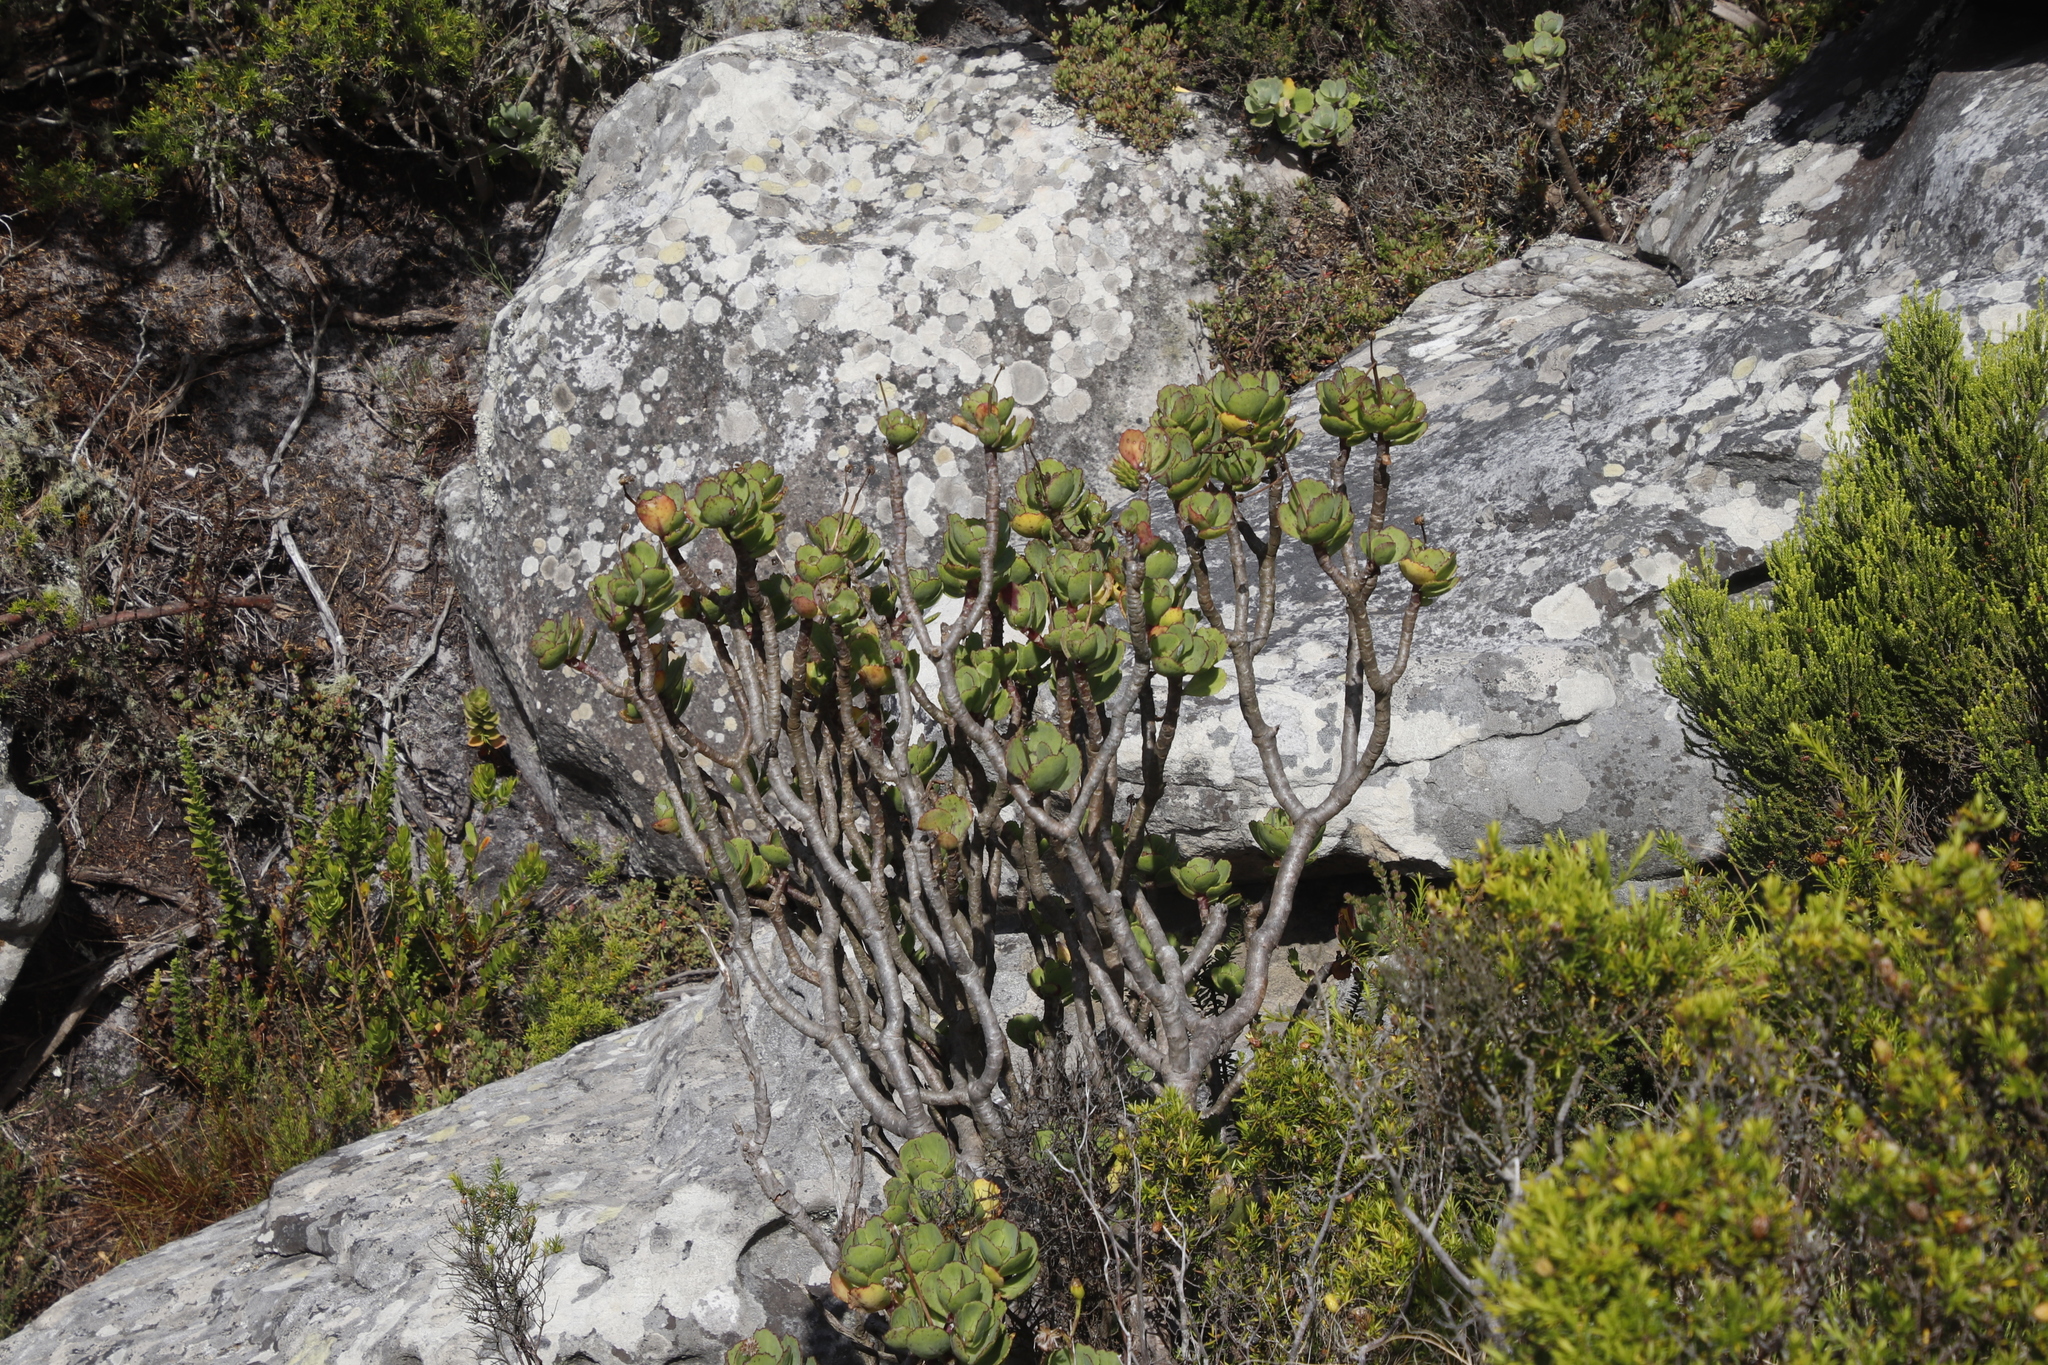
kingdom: Plantae
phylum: Tracheophyta
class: Magnoliopsida
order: Asterales
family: Asteraceae
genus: Othonna
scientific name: Othonna dentata
